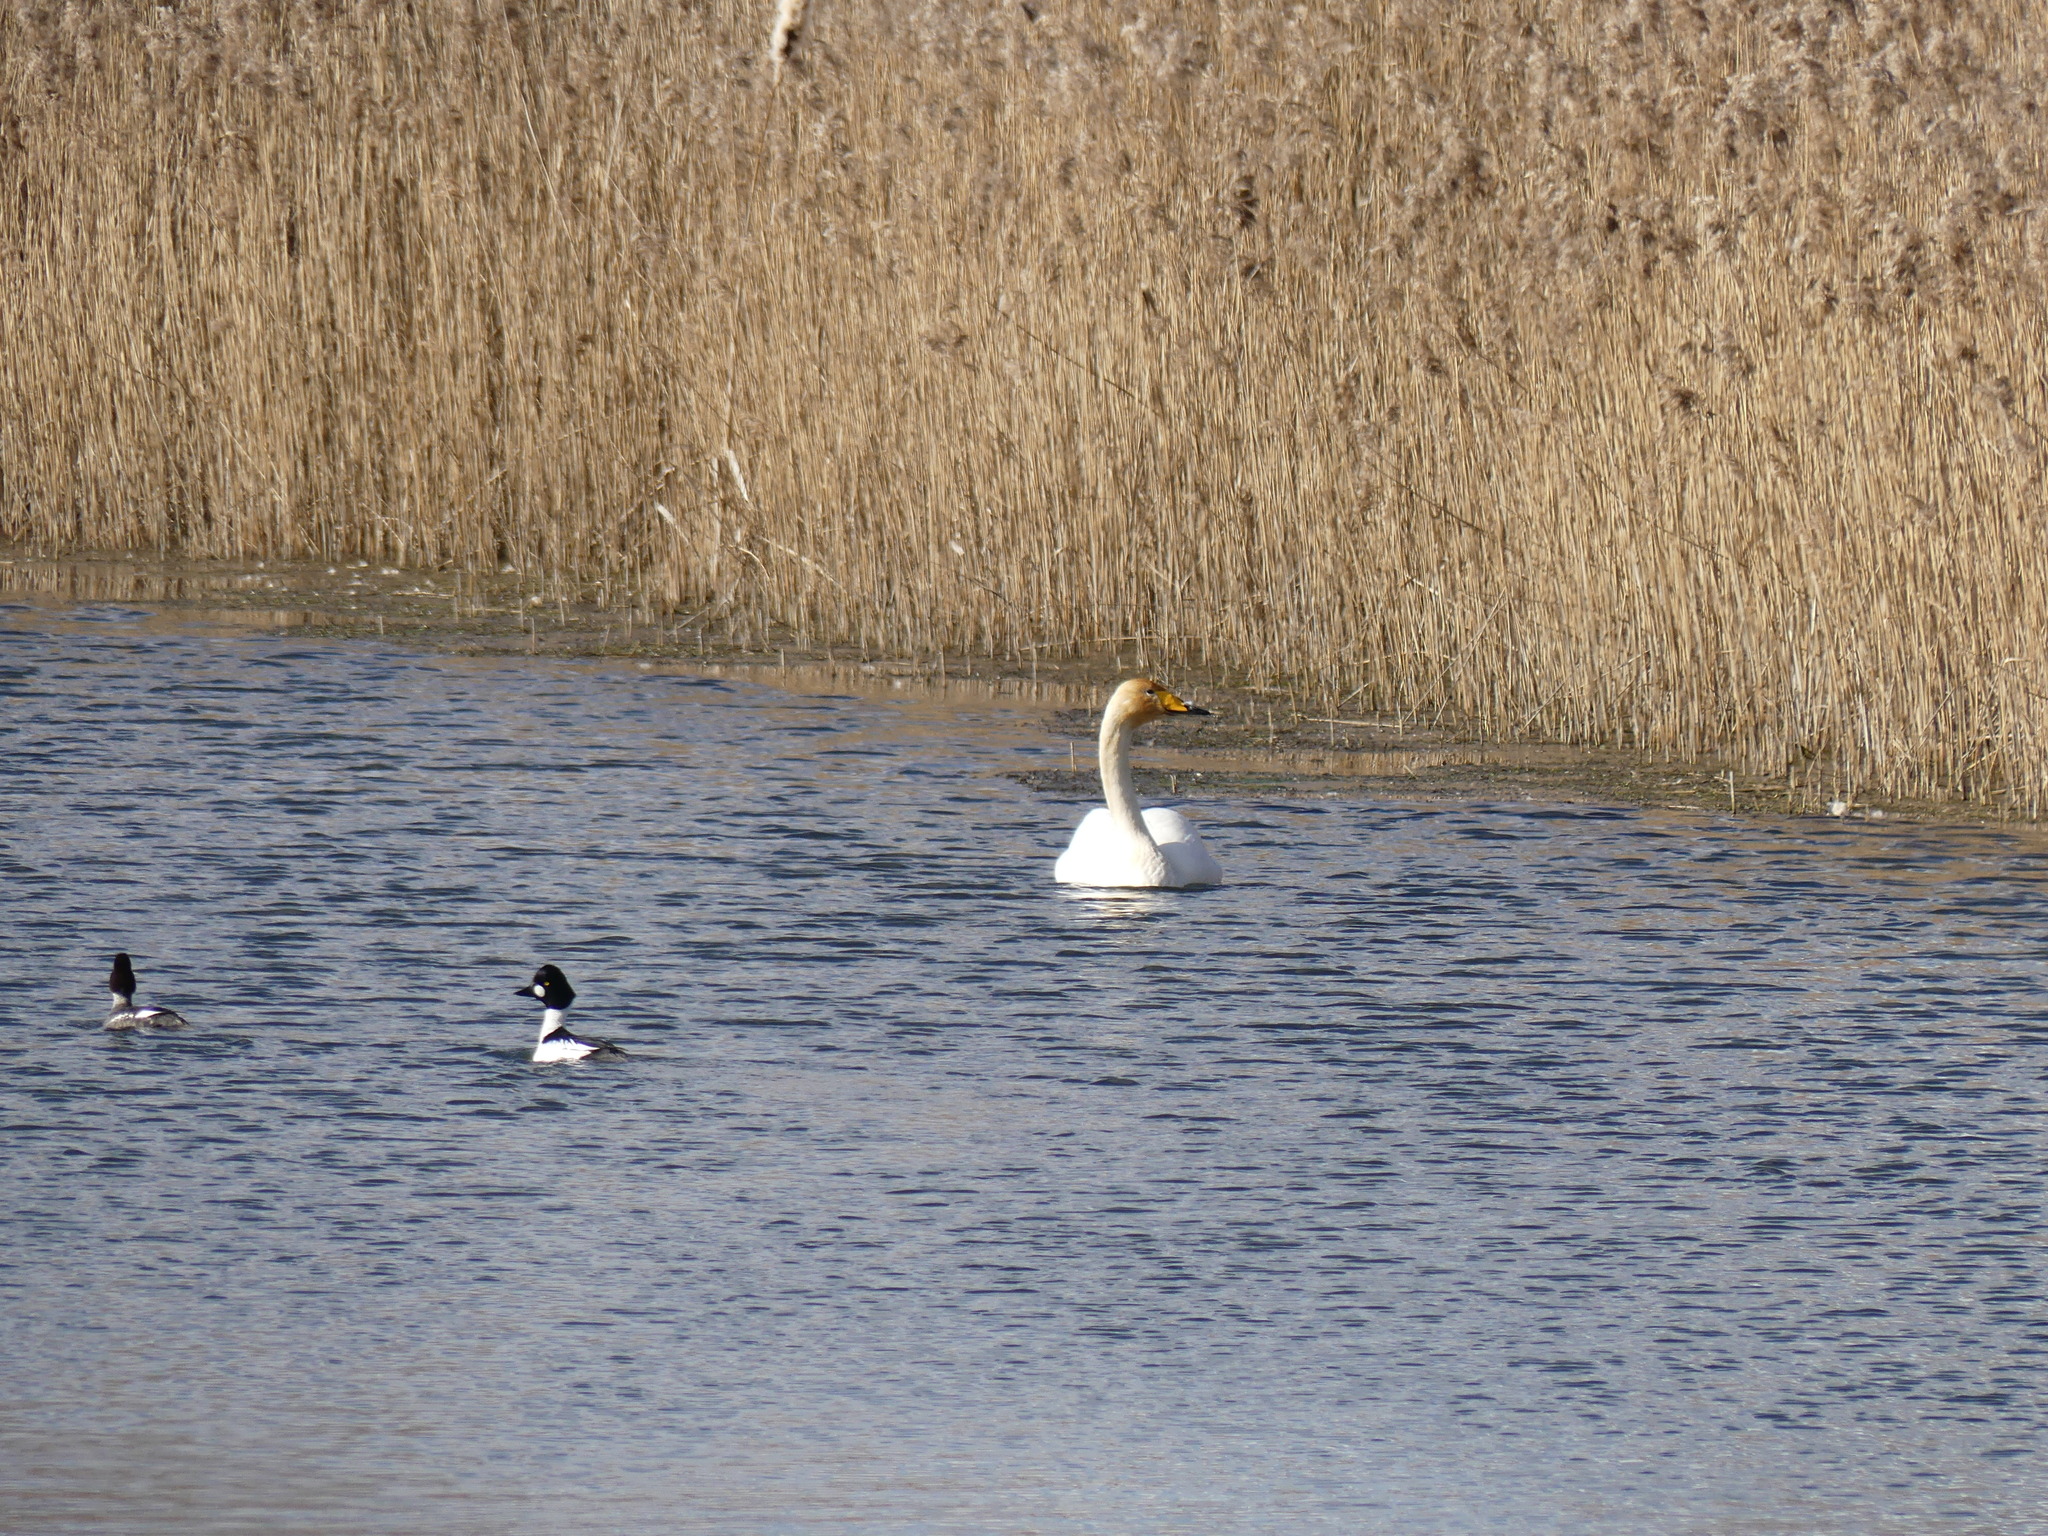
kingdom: Animalia
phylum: Chordata
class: Aves
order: Anseriformes
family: Anatidae
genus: Cygnus
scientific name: Cygnus cygnus
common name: Whooper swan
